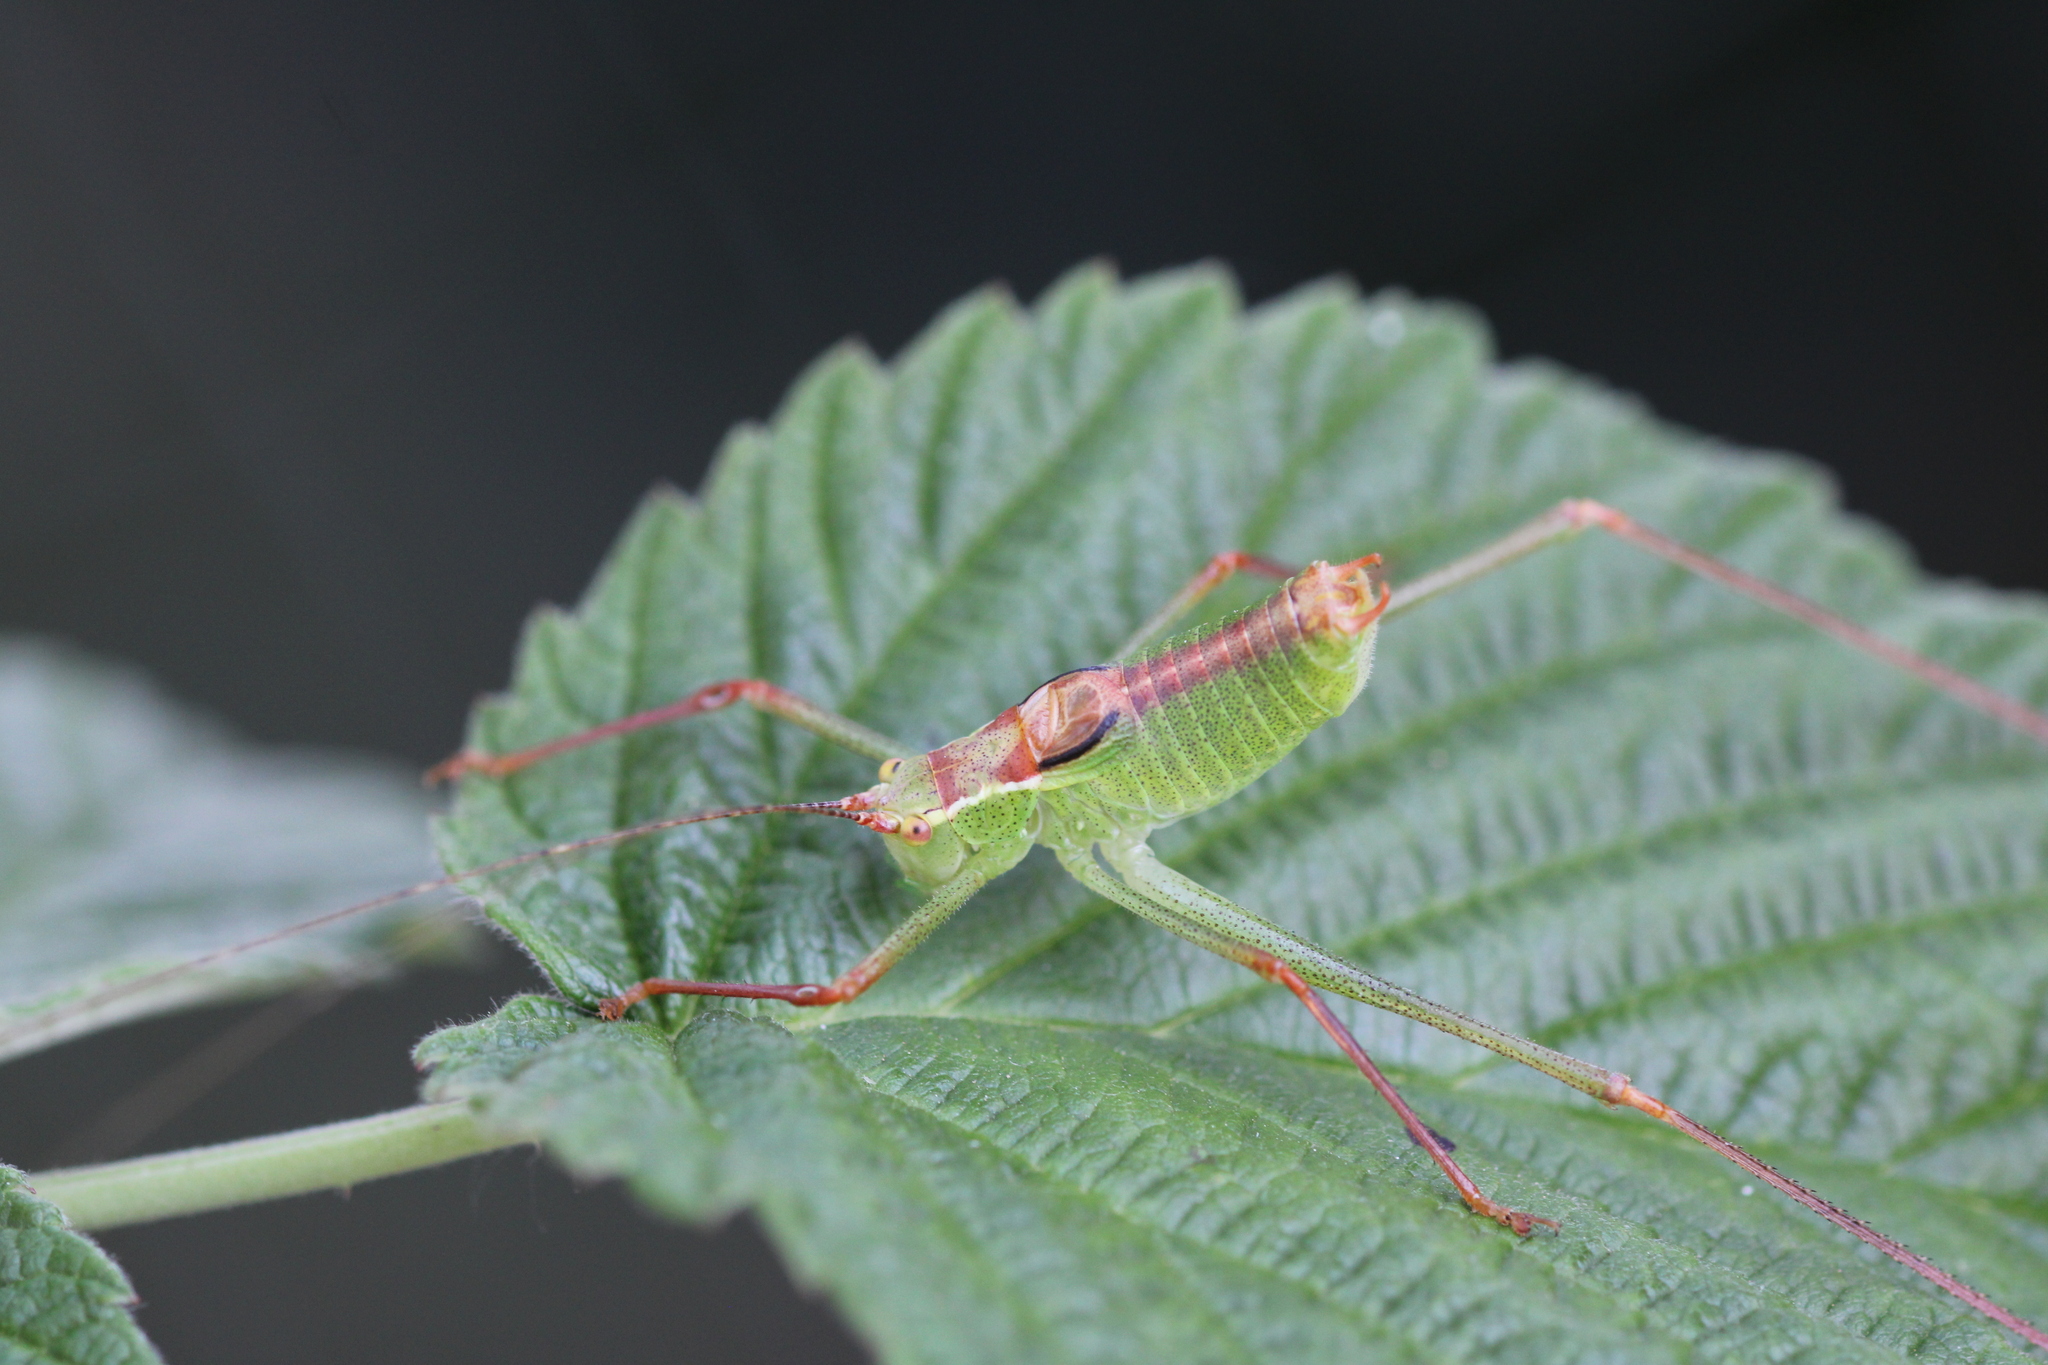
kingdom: Animalia
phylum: Arthropoda
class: Insecta
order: Orthoptera
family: Tettigoniidae
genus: Leptophyes
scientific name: Leptophyes punctatissima
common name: Speckled bush-cricket
